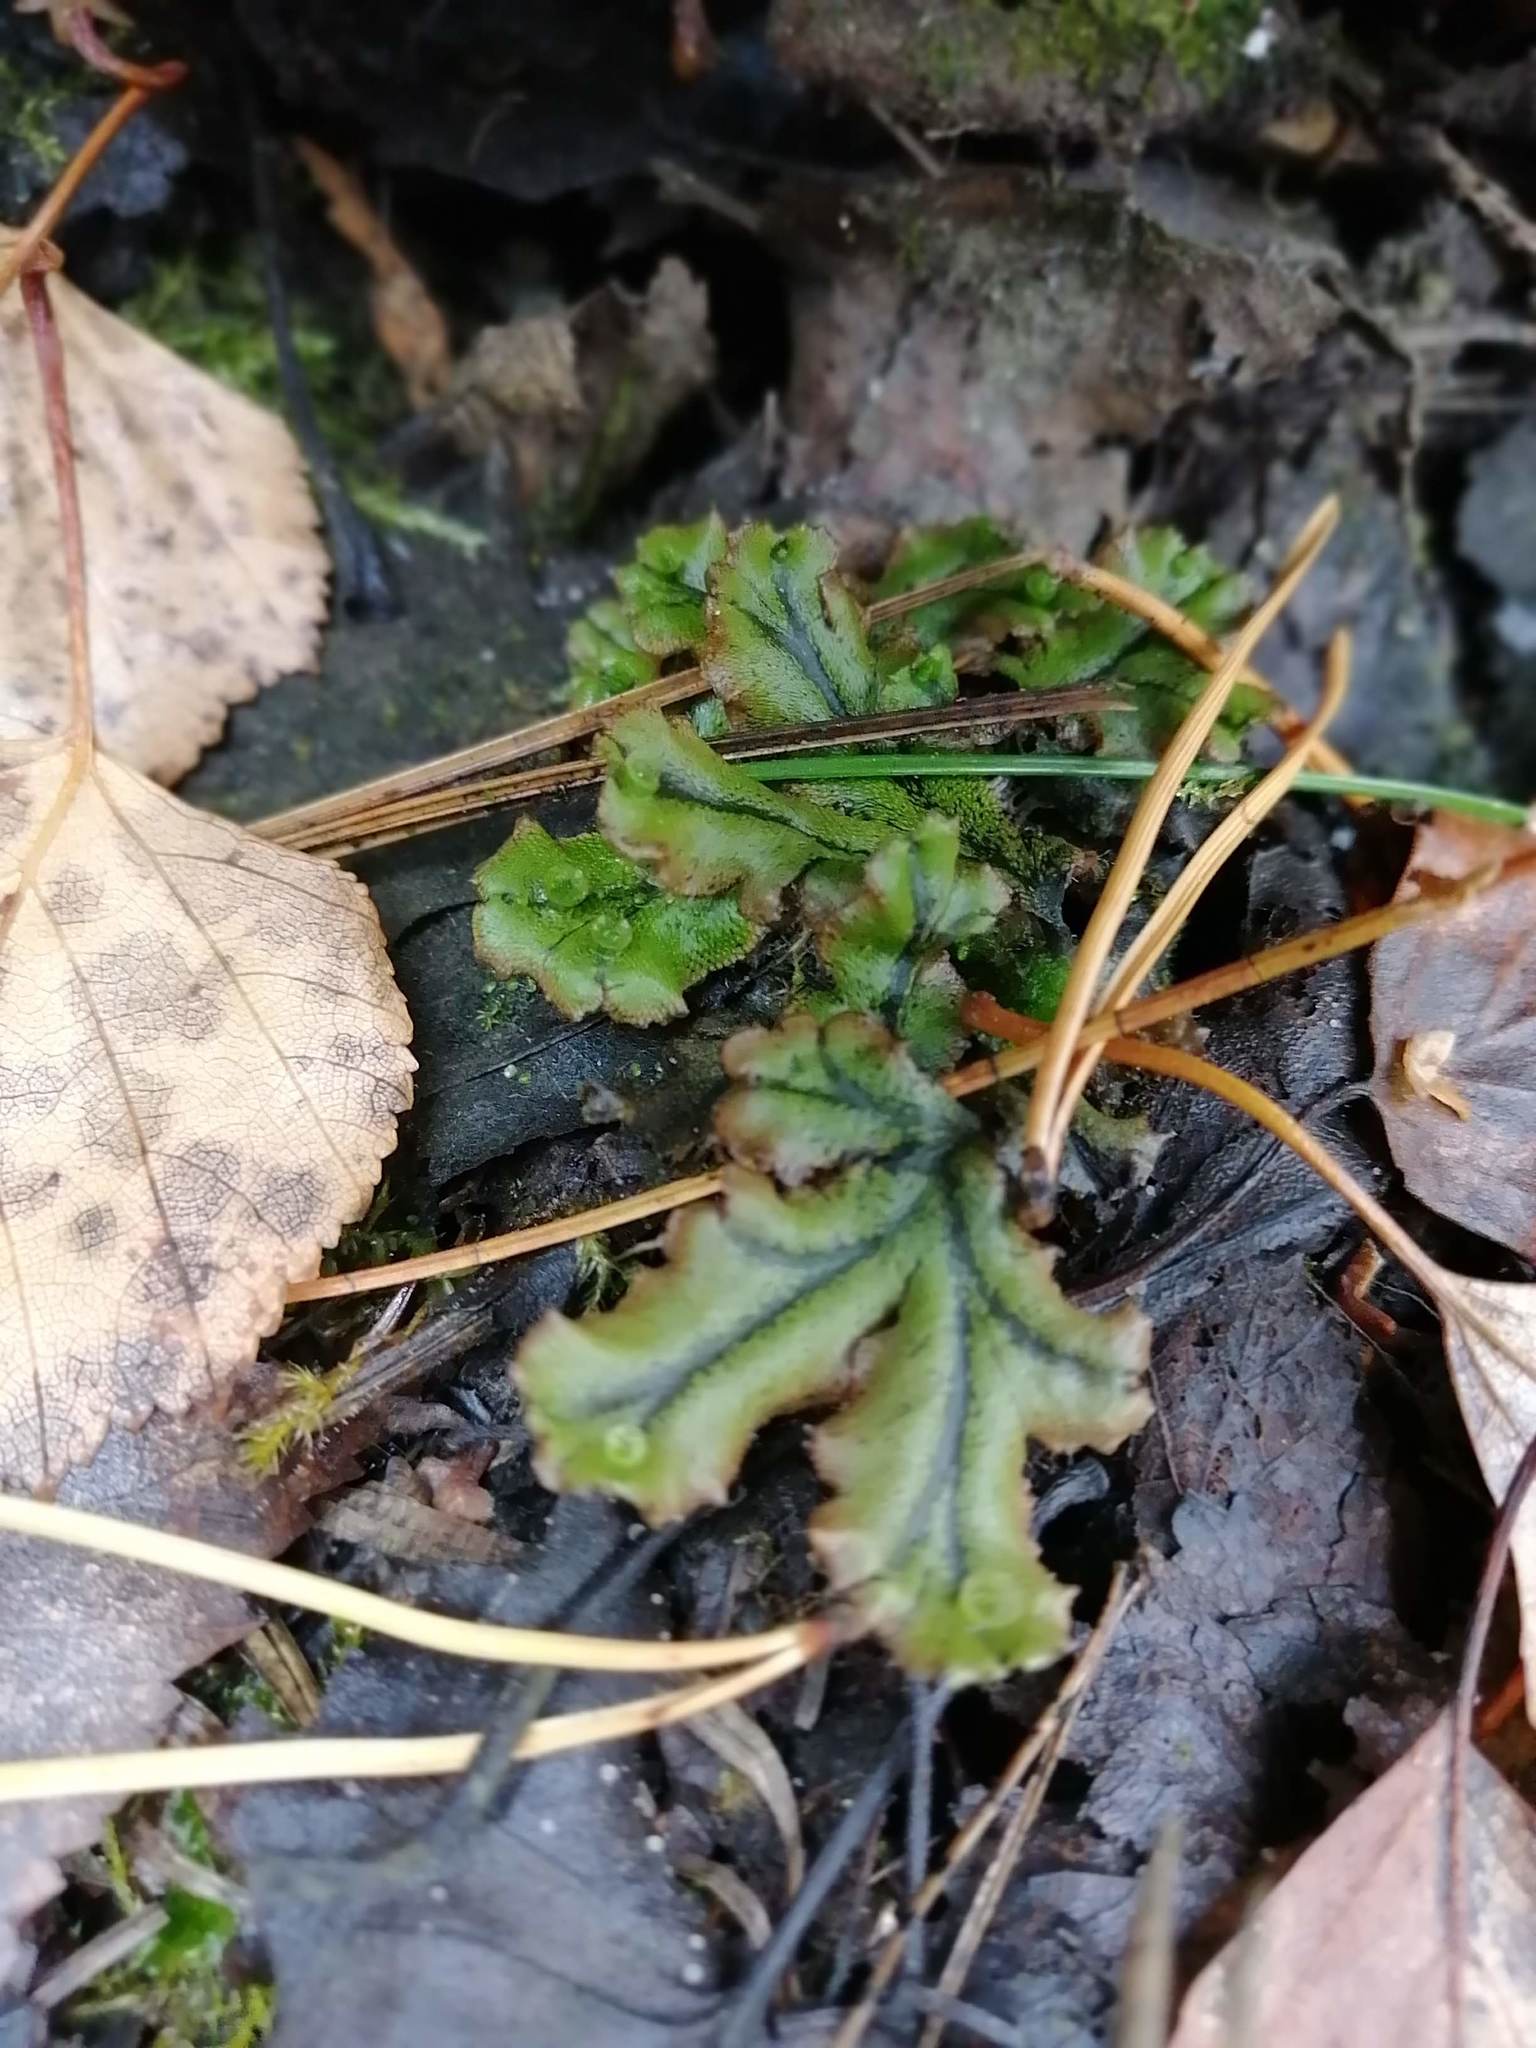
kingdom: Plantae
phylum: Marchantiophyta
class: Marchantiopsida
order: Marchantiales
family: Marchantiaceae
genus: Marchantia
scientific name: Marchantia polymorpha
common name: Common liverwort
